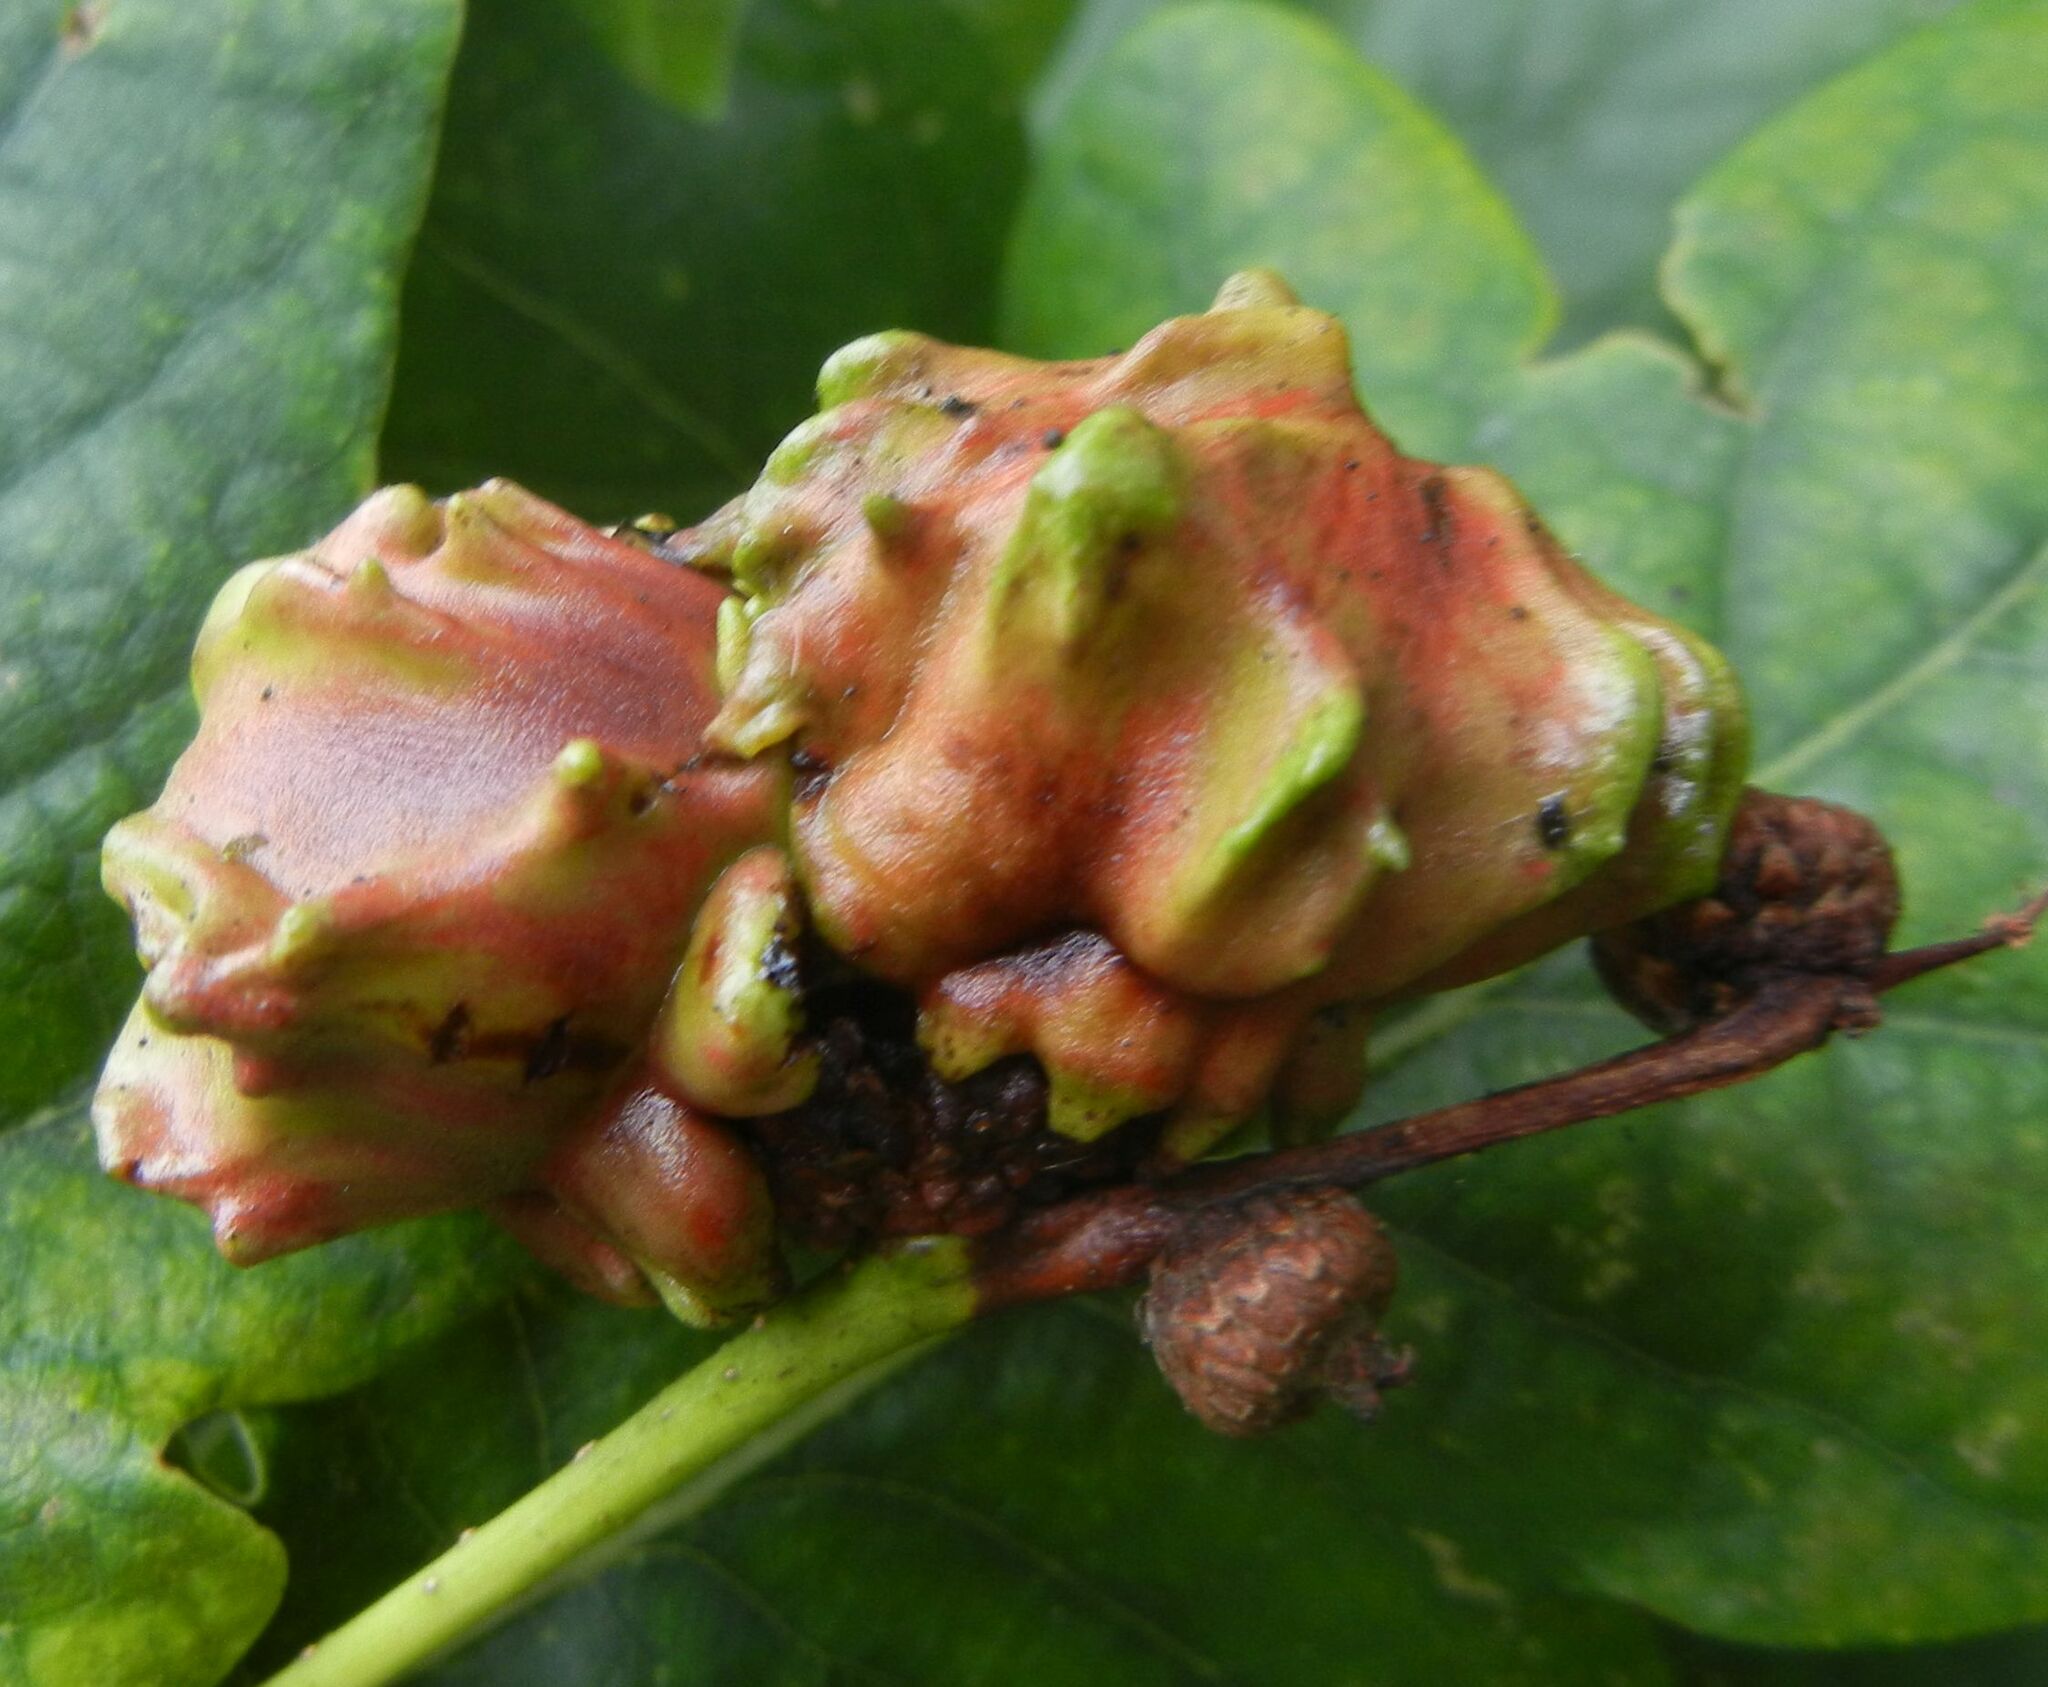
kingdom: Animalia
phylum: Arthropoda
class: Insecta
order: Hymenoptera
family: Cynipidae
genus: Andricus
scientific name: Andricus quercuscalicis
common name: Knopper gall
